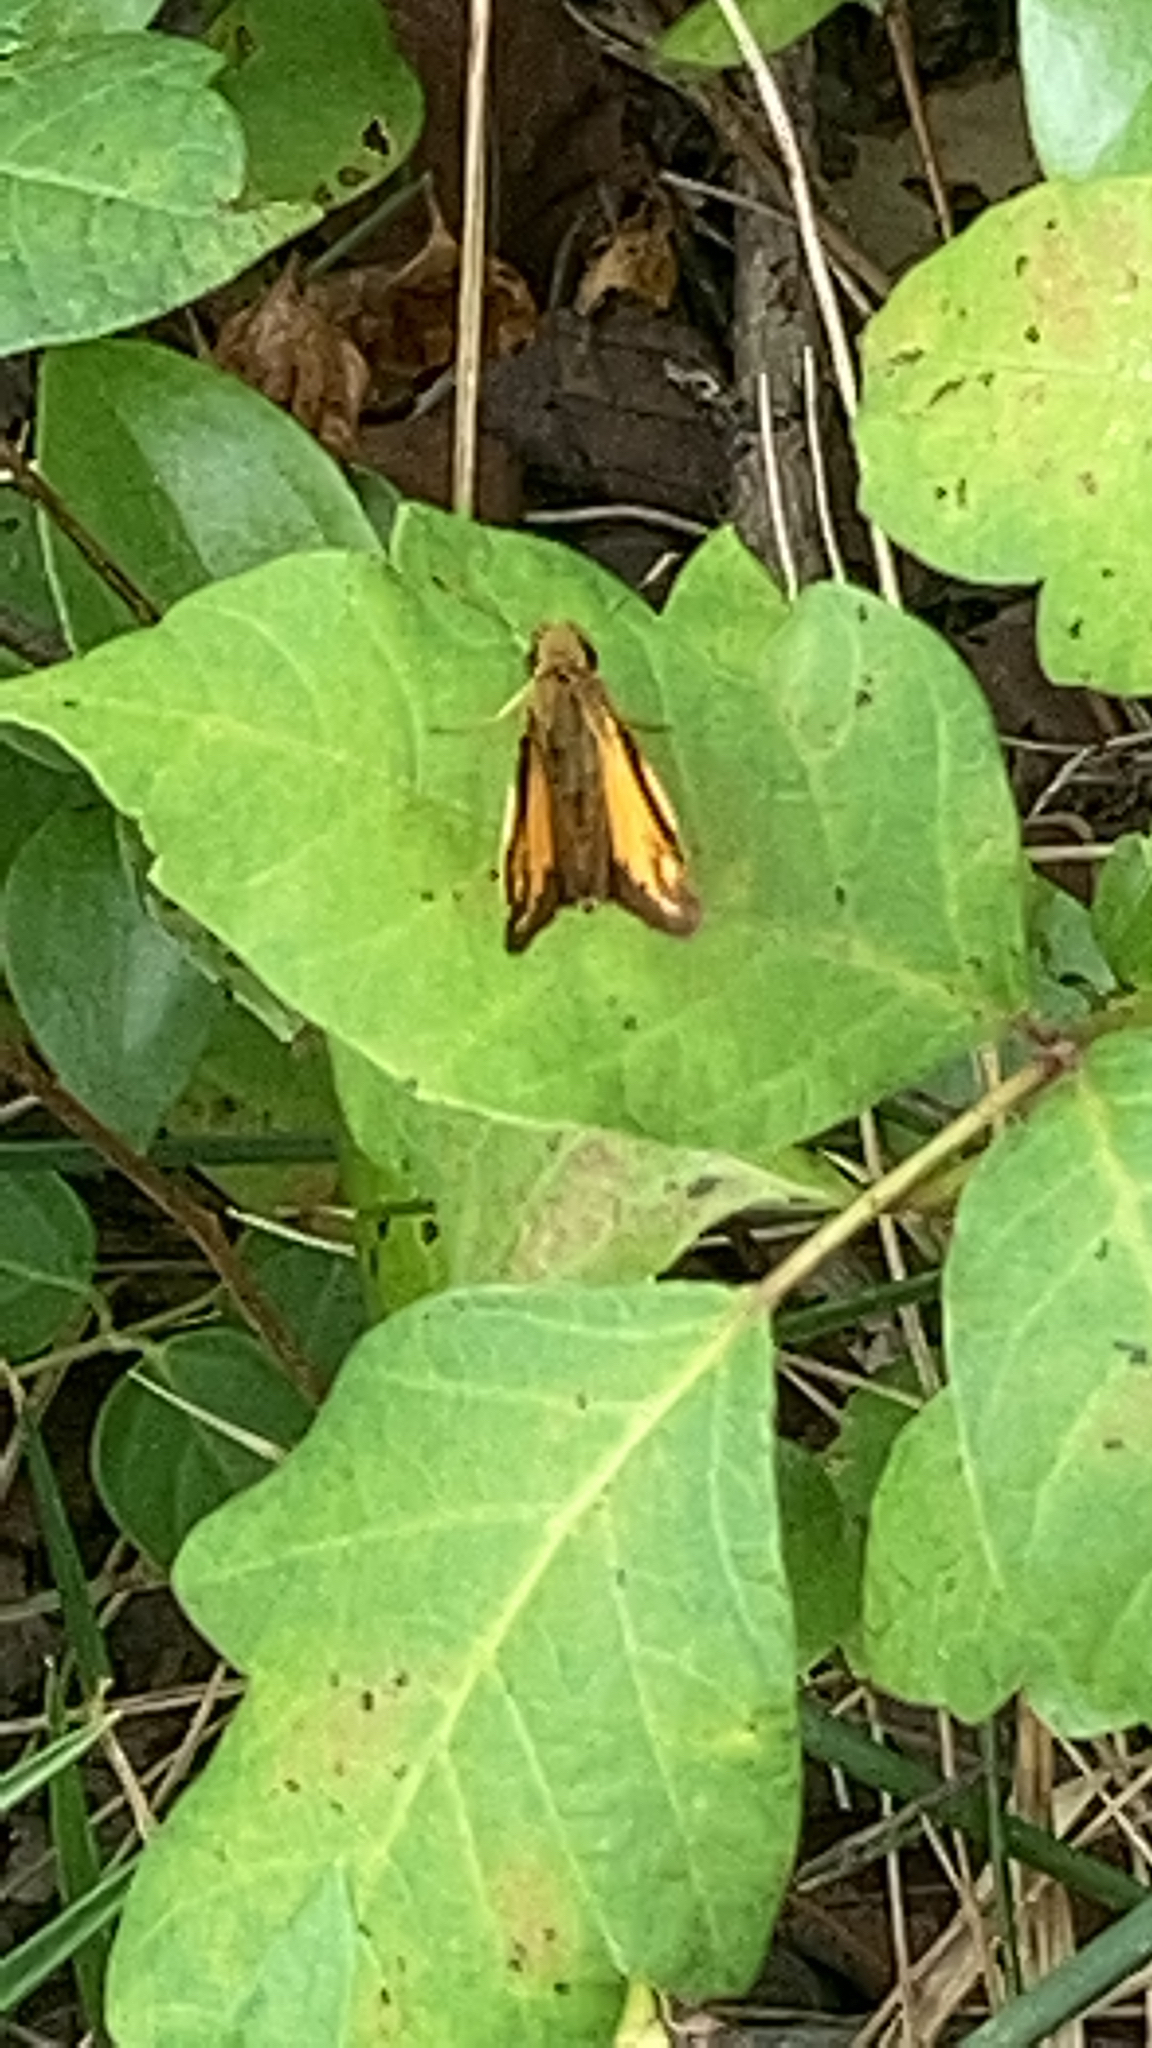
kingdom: Animalia
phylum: Arthropoda
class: Insecta
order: Lepidoptera
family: Hesperiidae
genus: Lon
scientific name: Lon zabulon
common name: Zabulon skipper
